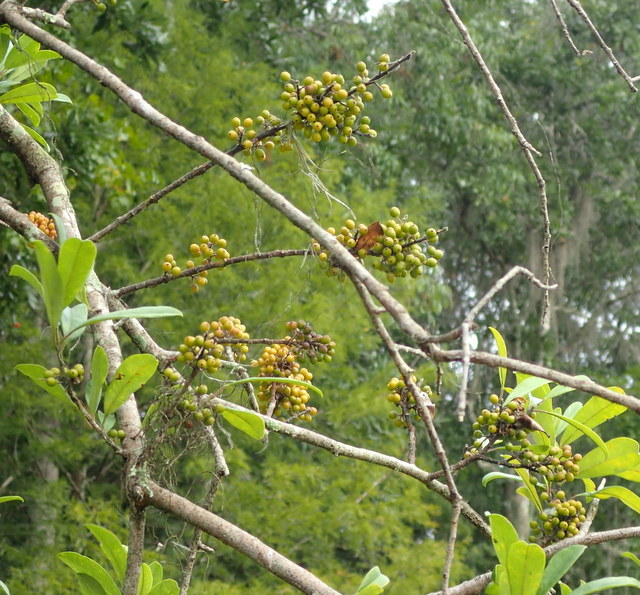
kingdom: Plantae
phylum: Tracheophyta
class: Magnoliopsida
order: Aquifoliales
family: Aquifoliaceae
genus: Ilex
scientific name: Ilex cassine
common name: Dahoon
